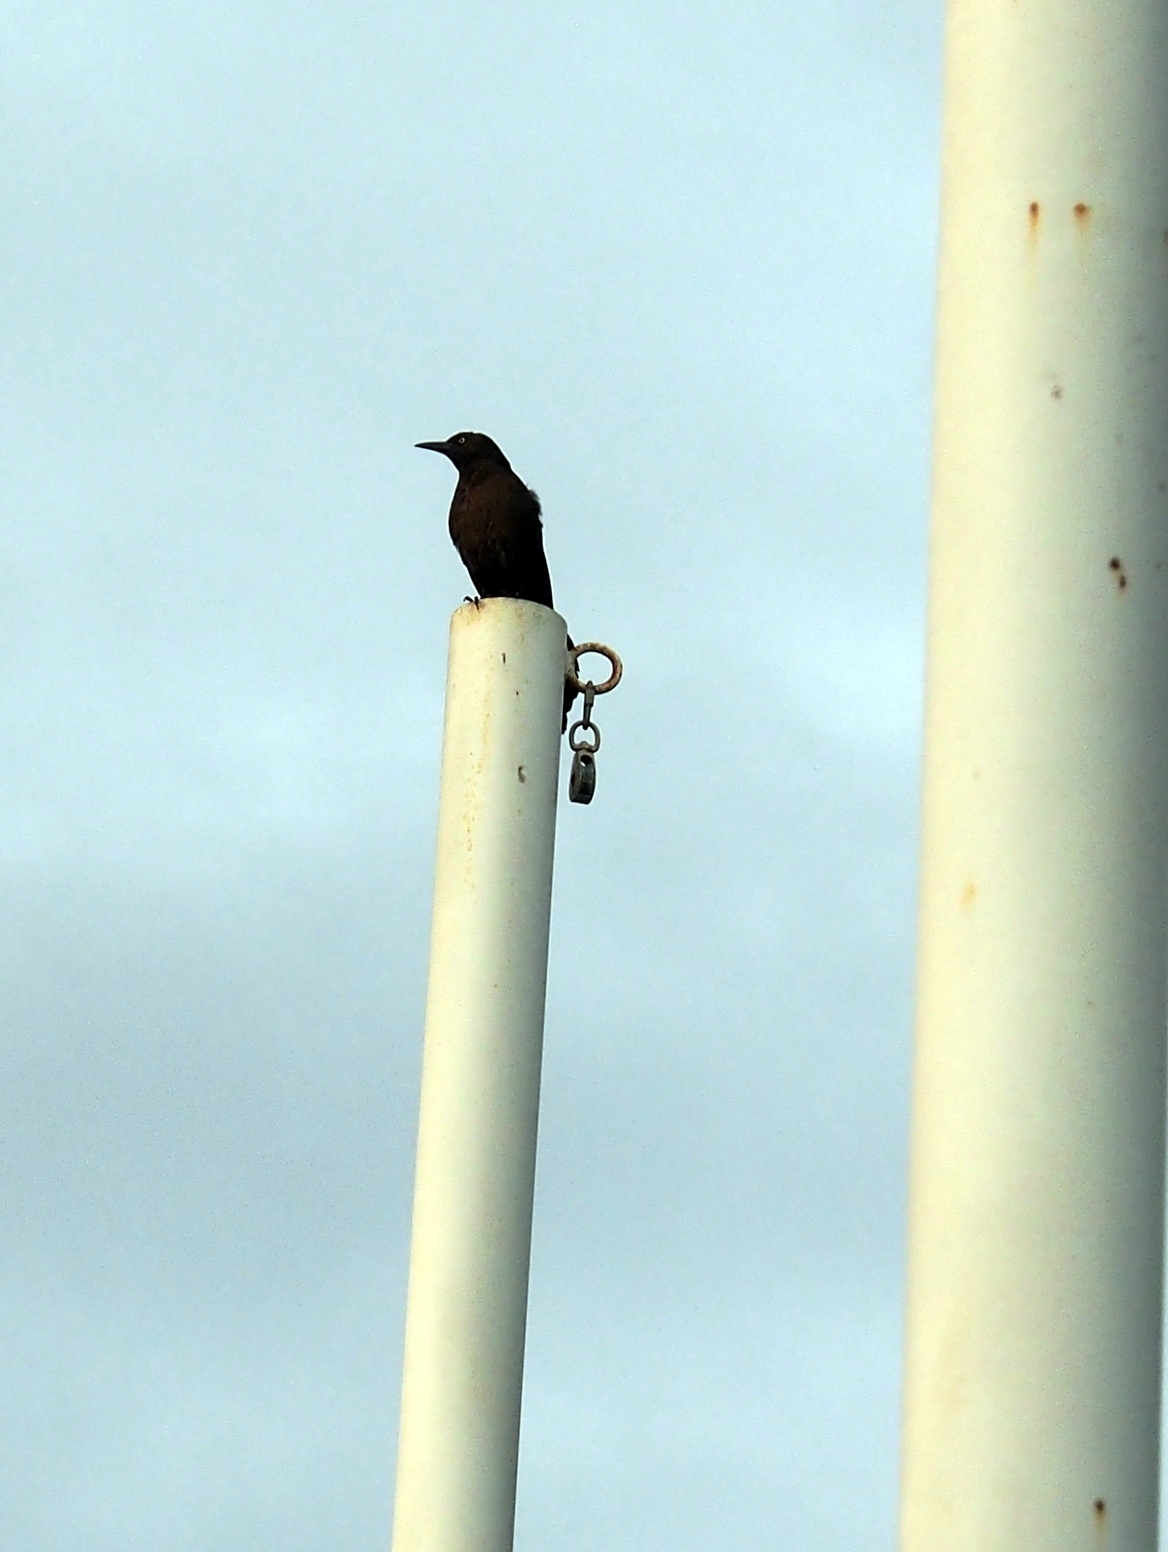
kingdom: Animalia
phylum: Chordata
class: Aves
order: Passeriformes
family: Icteridae
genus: Quiscalus
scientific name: Quiscalus mexicanus
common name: Great-tailed grackle
